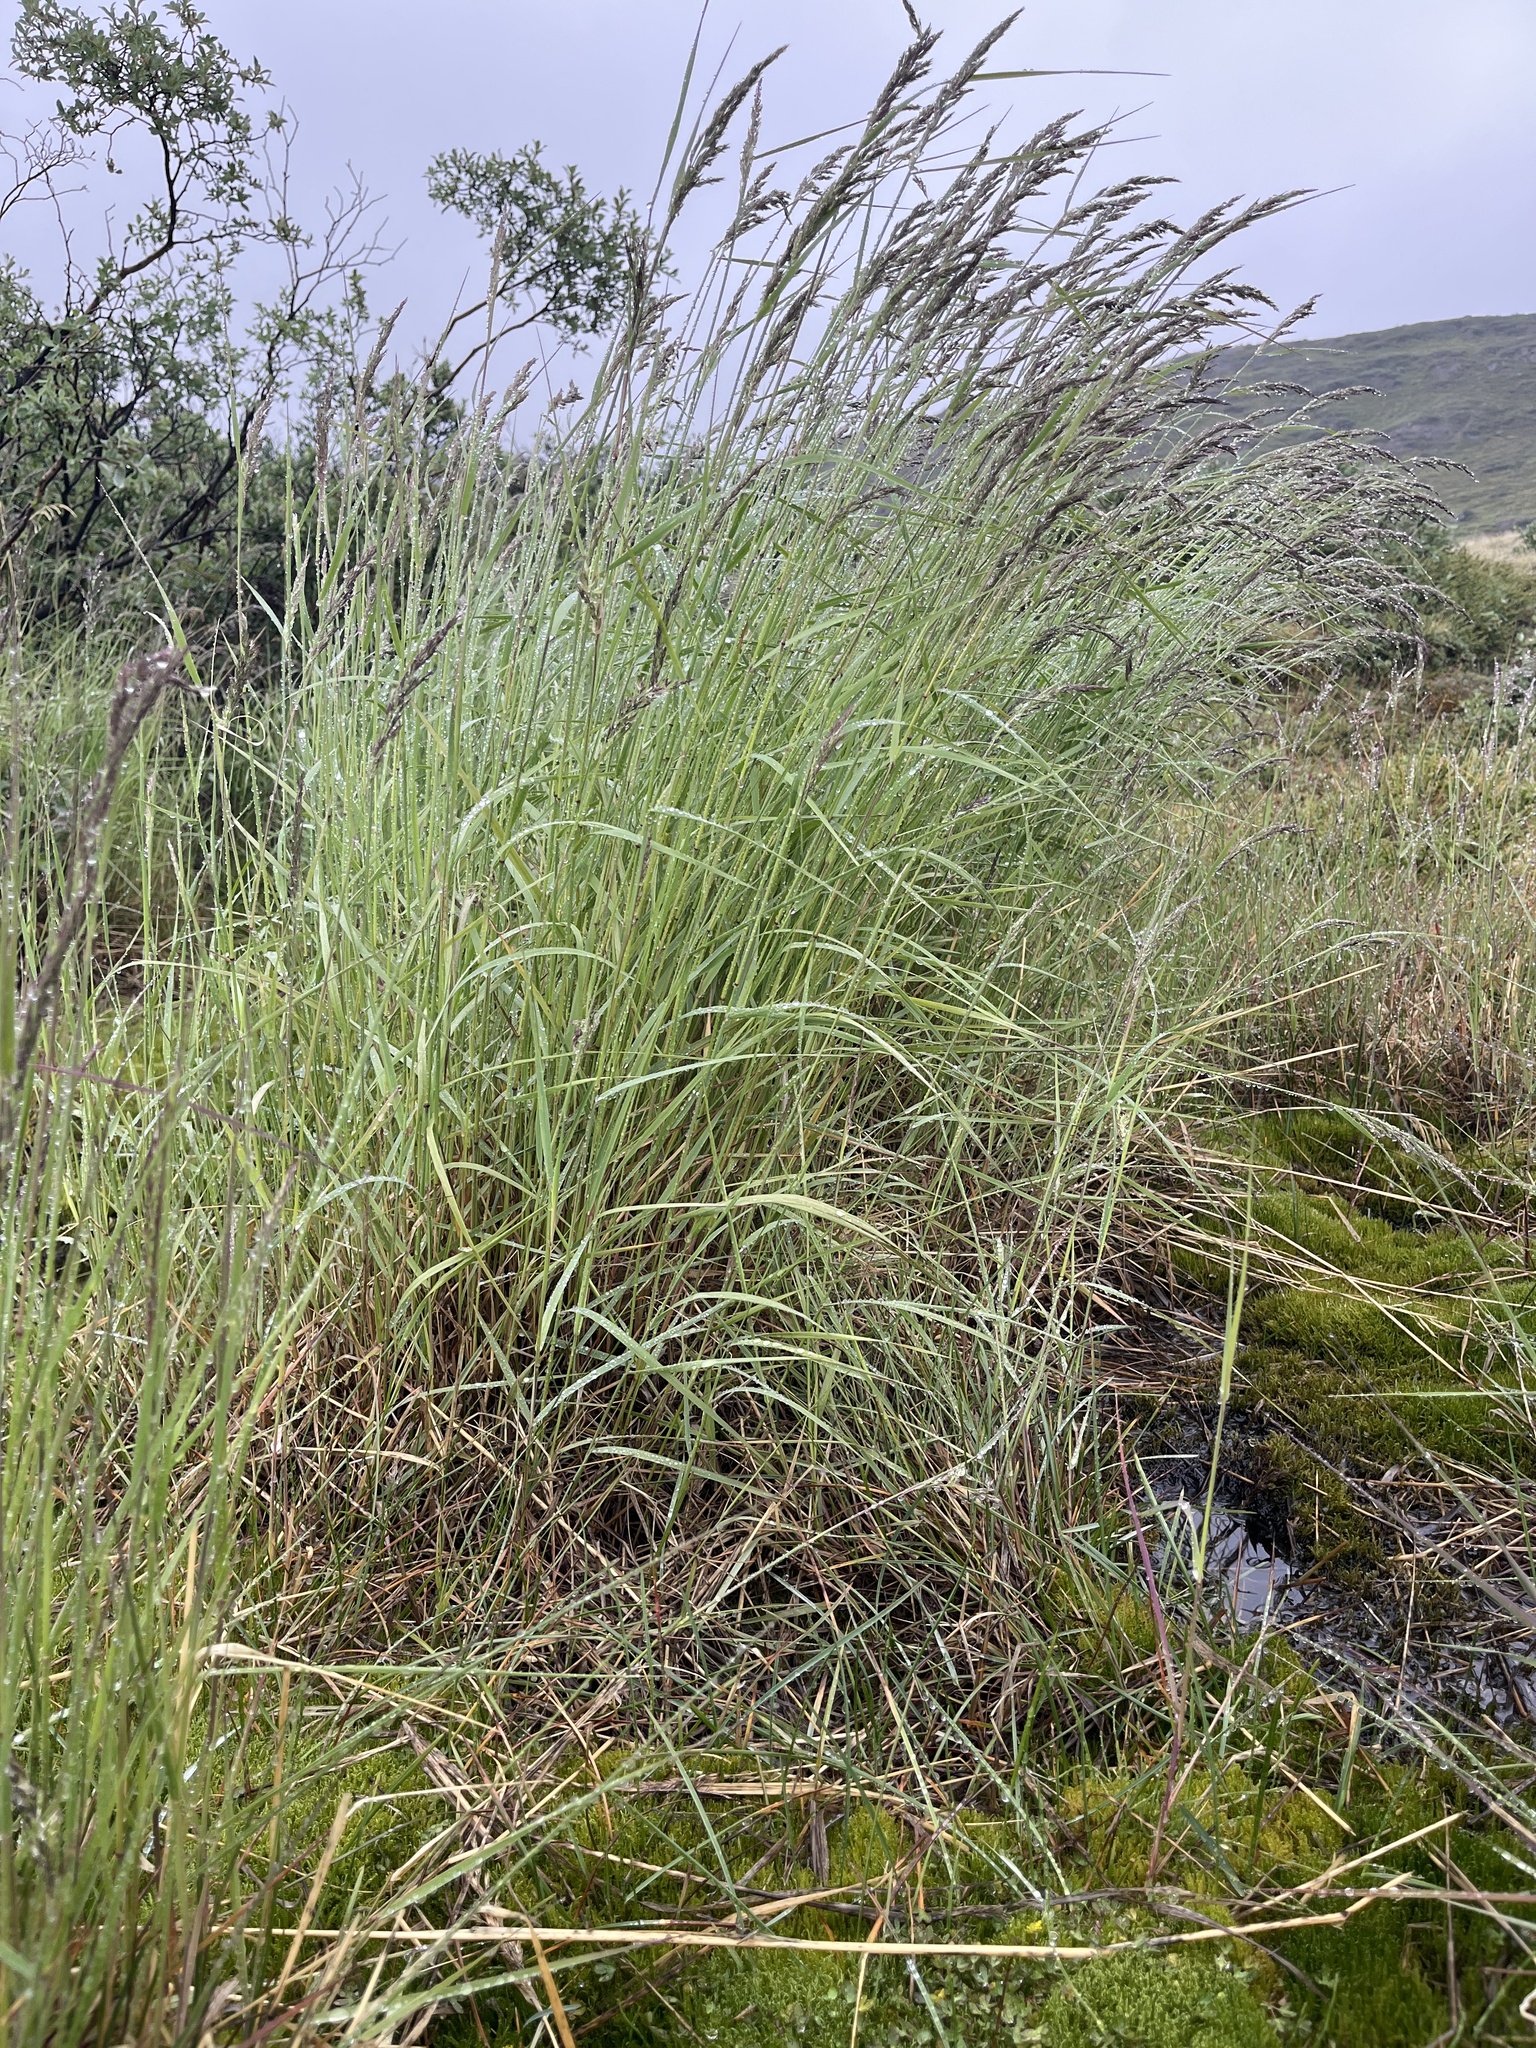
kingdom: Plantae
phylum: Tracheophyta
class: Liliopsida
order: Poales
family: Poaceae
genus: Calamagrostis
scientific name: Calamagrostis purpurea
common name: Scandinavian small-reed
